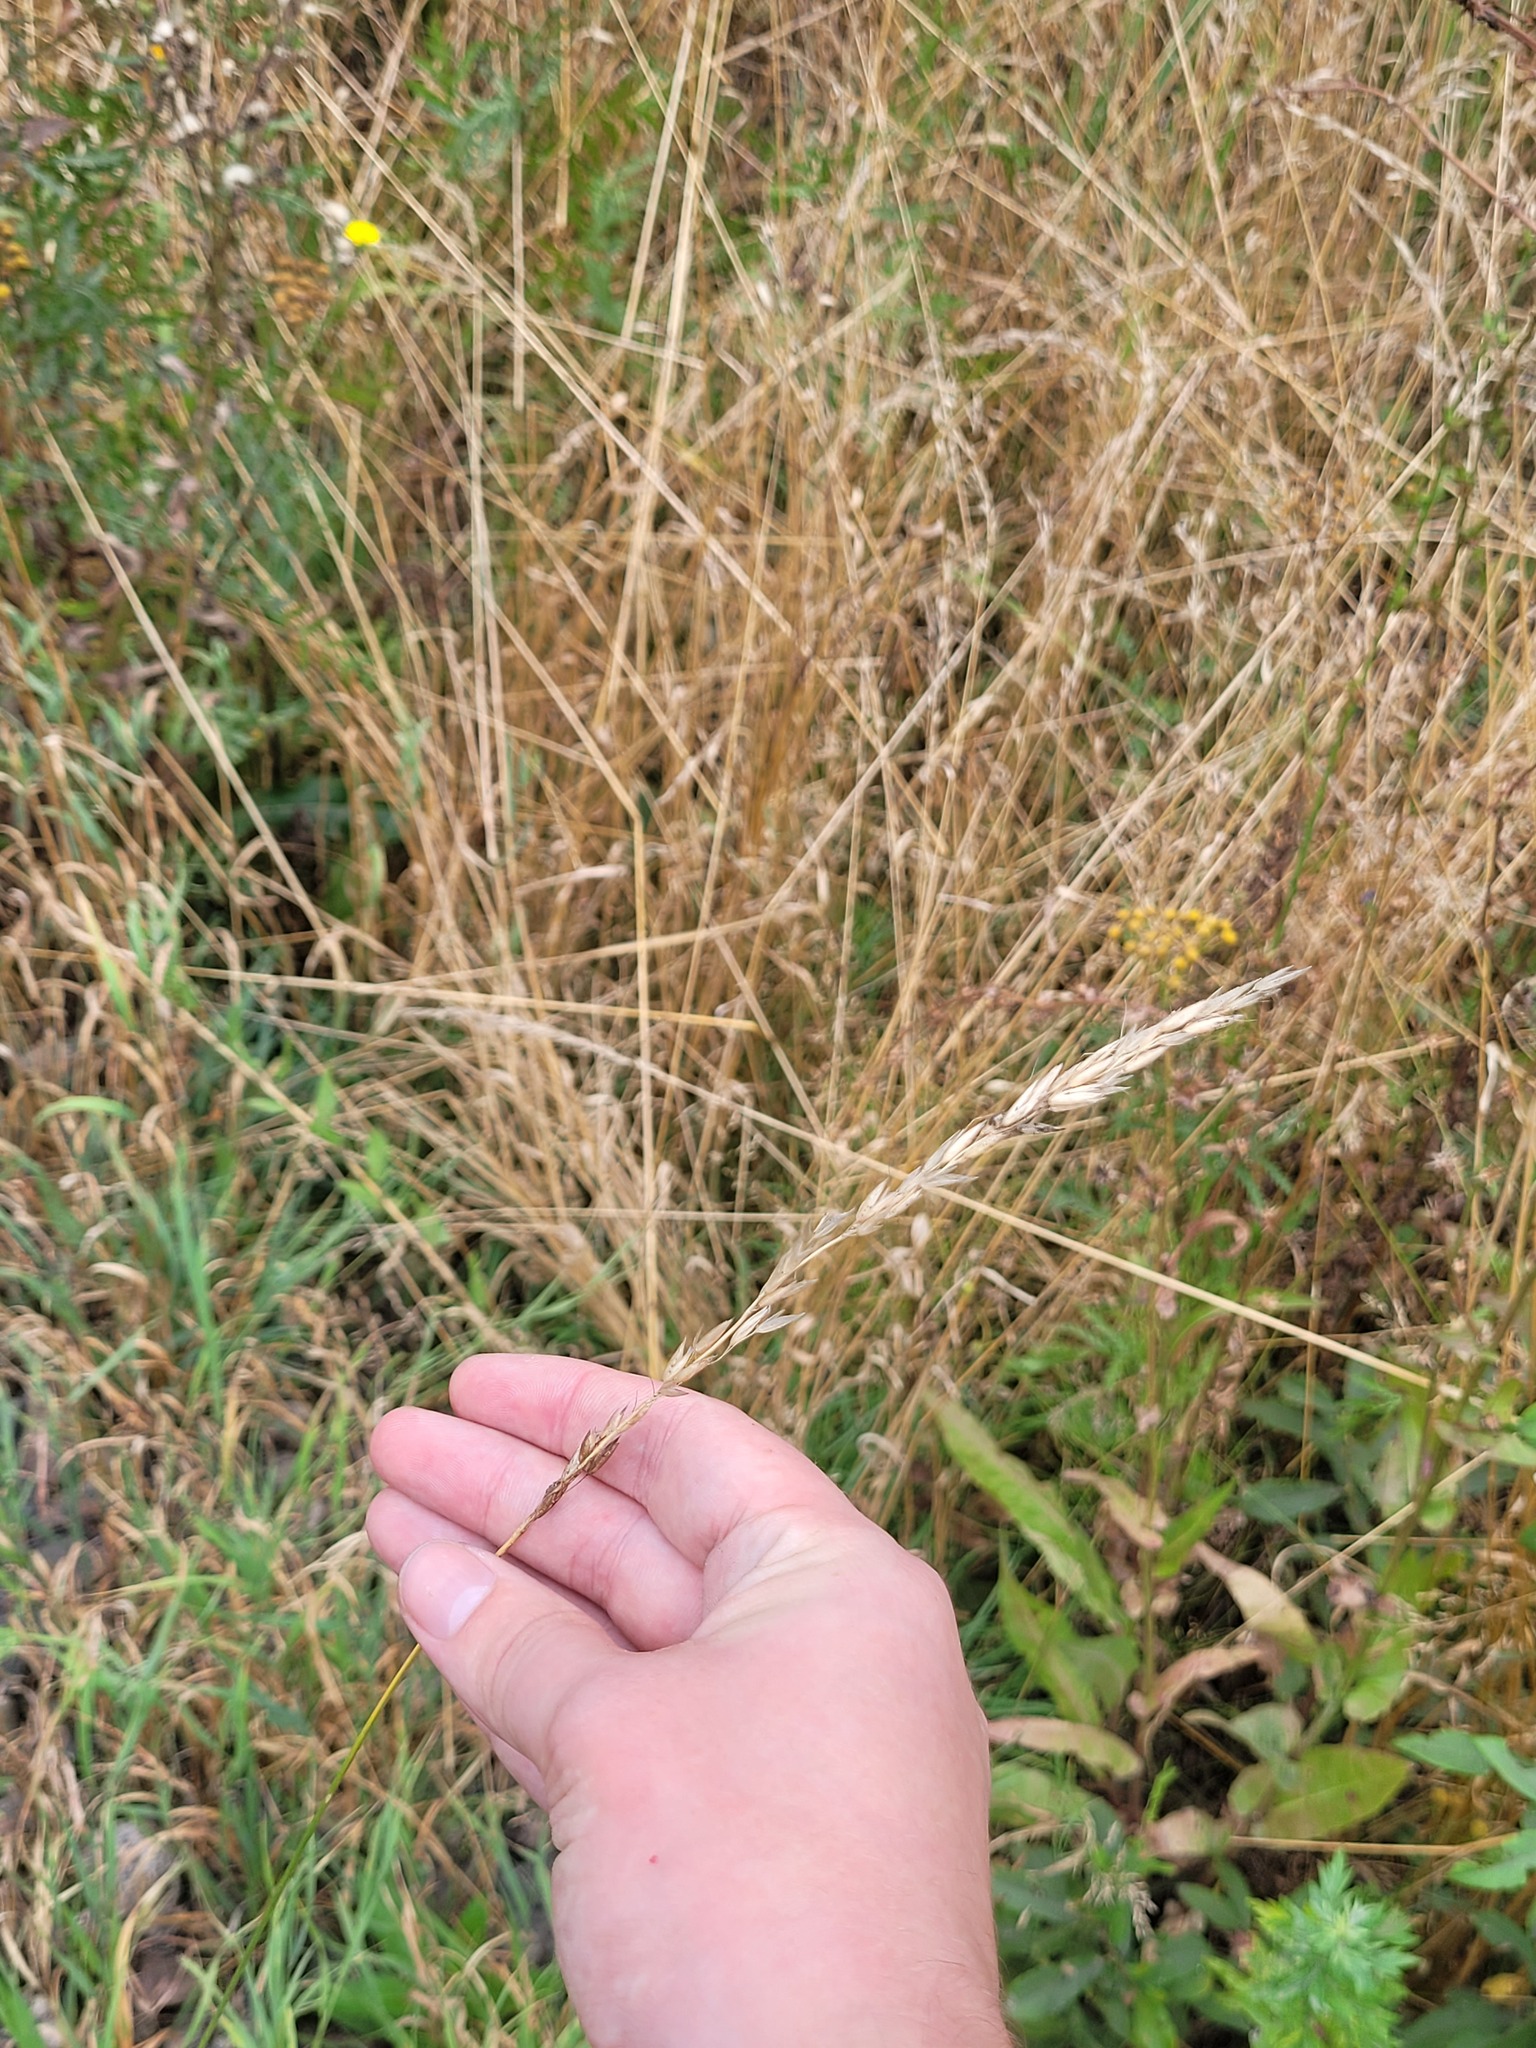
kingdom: Plantae
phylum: Tracheophyta
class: Liliopsida
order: Poales
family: Poaceae
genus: Arrhenatherum
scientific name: Arrhenatherum elatius
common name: Tall oatgrass
